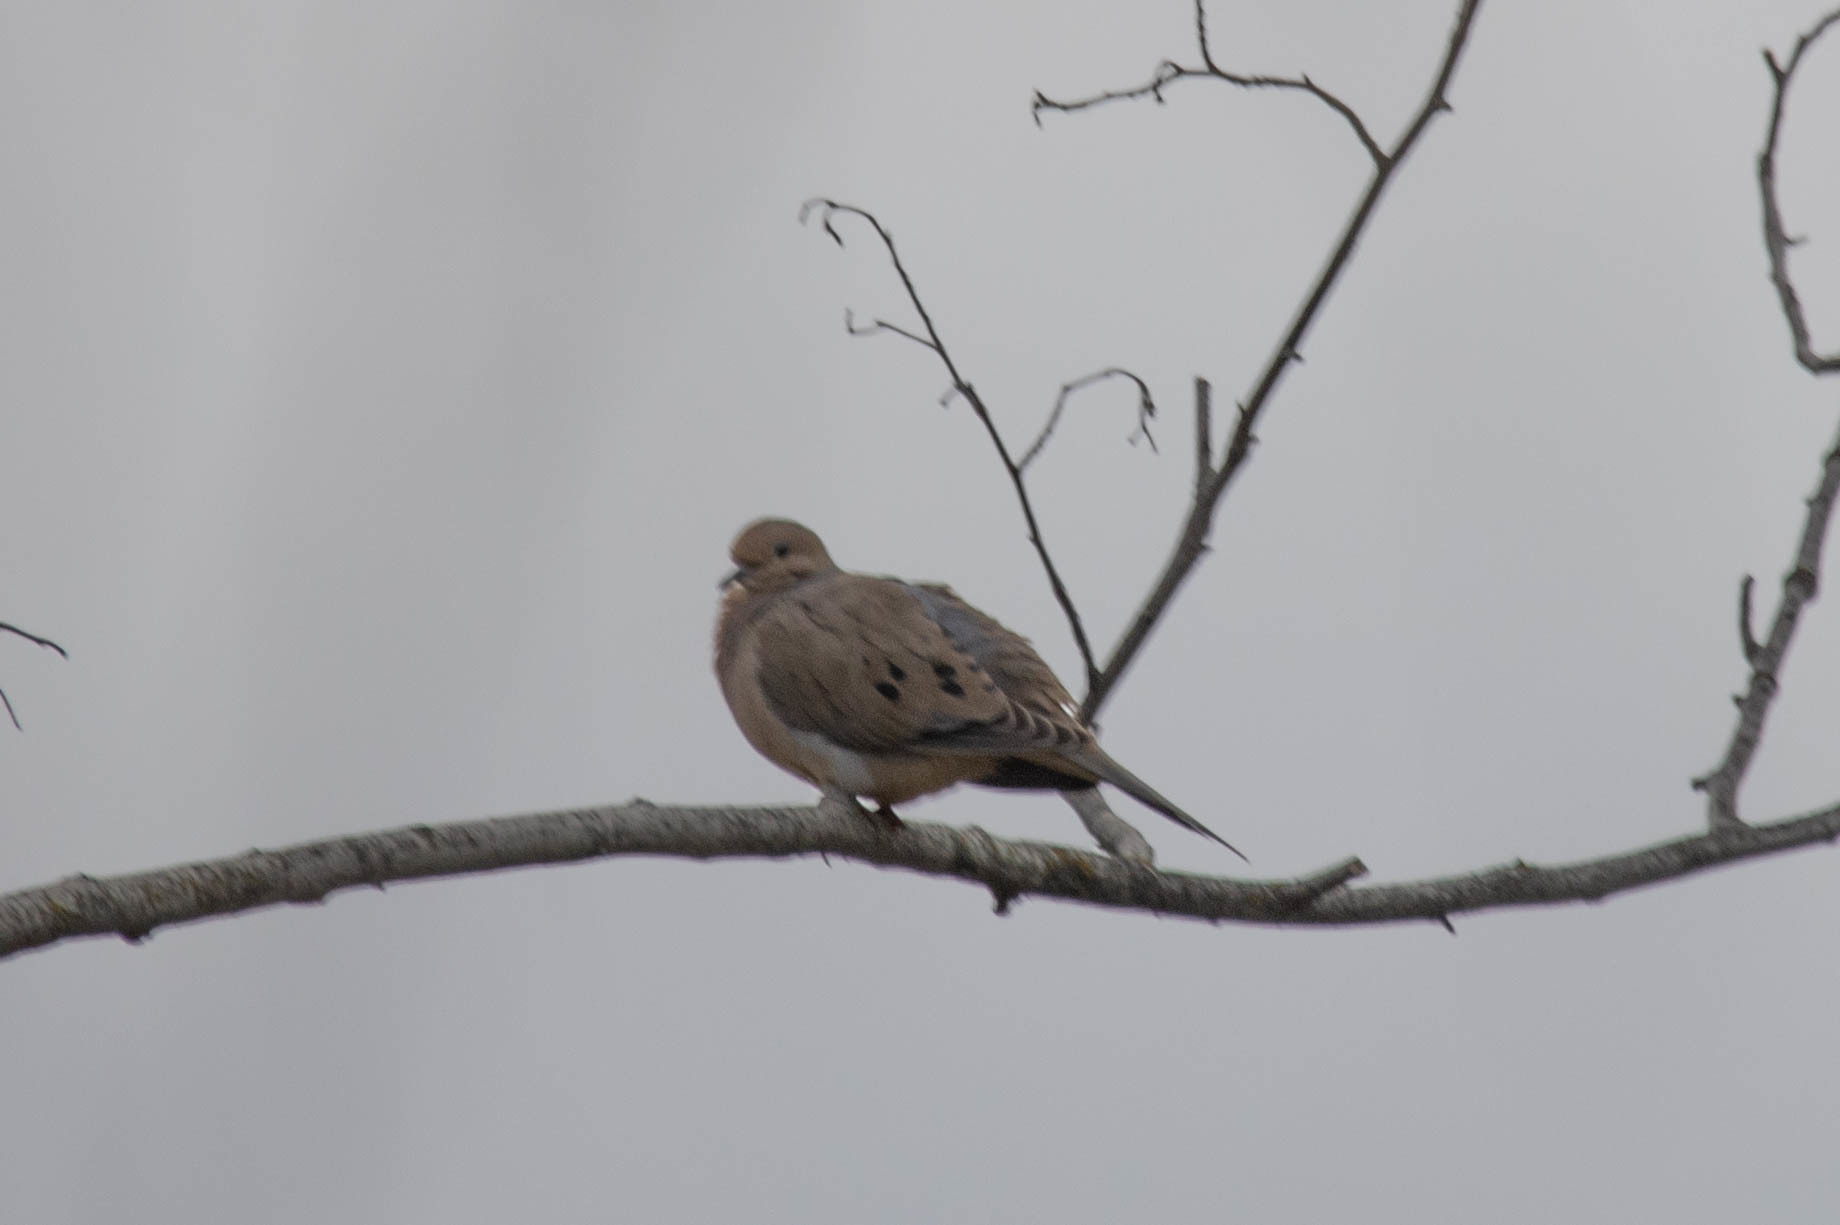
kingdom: Animalia
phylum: Chordata
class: Aves
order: Columbiformes
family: Columbidae
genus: Zenaida
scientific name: Zenaida macroura
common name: Mourning dove
